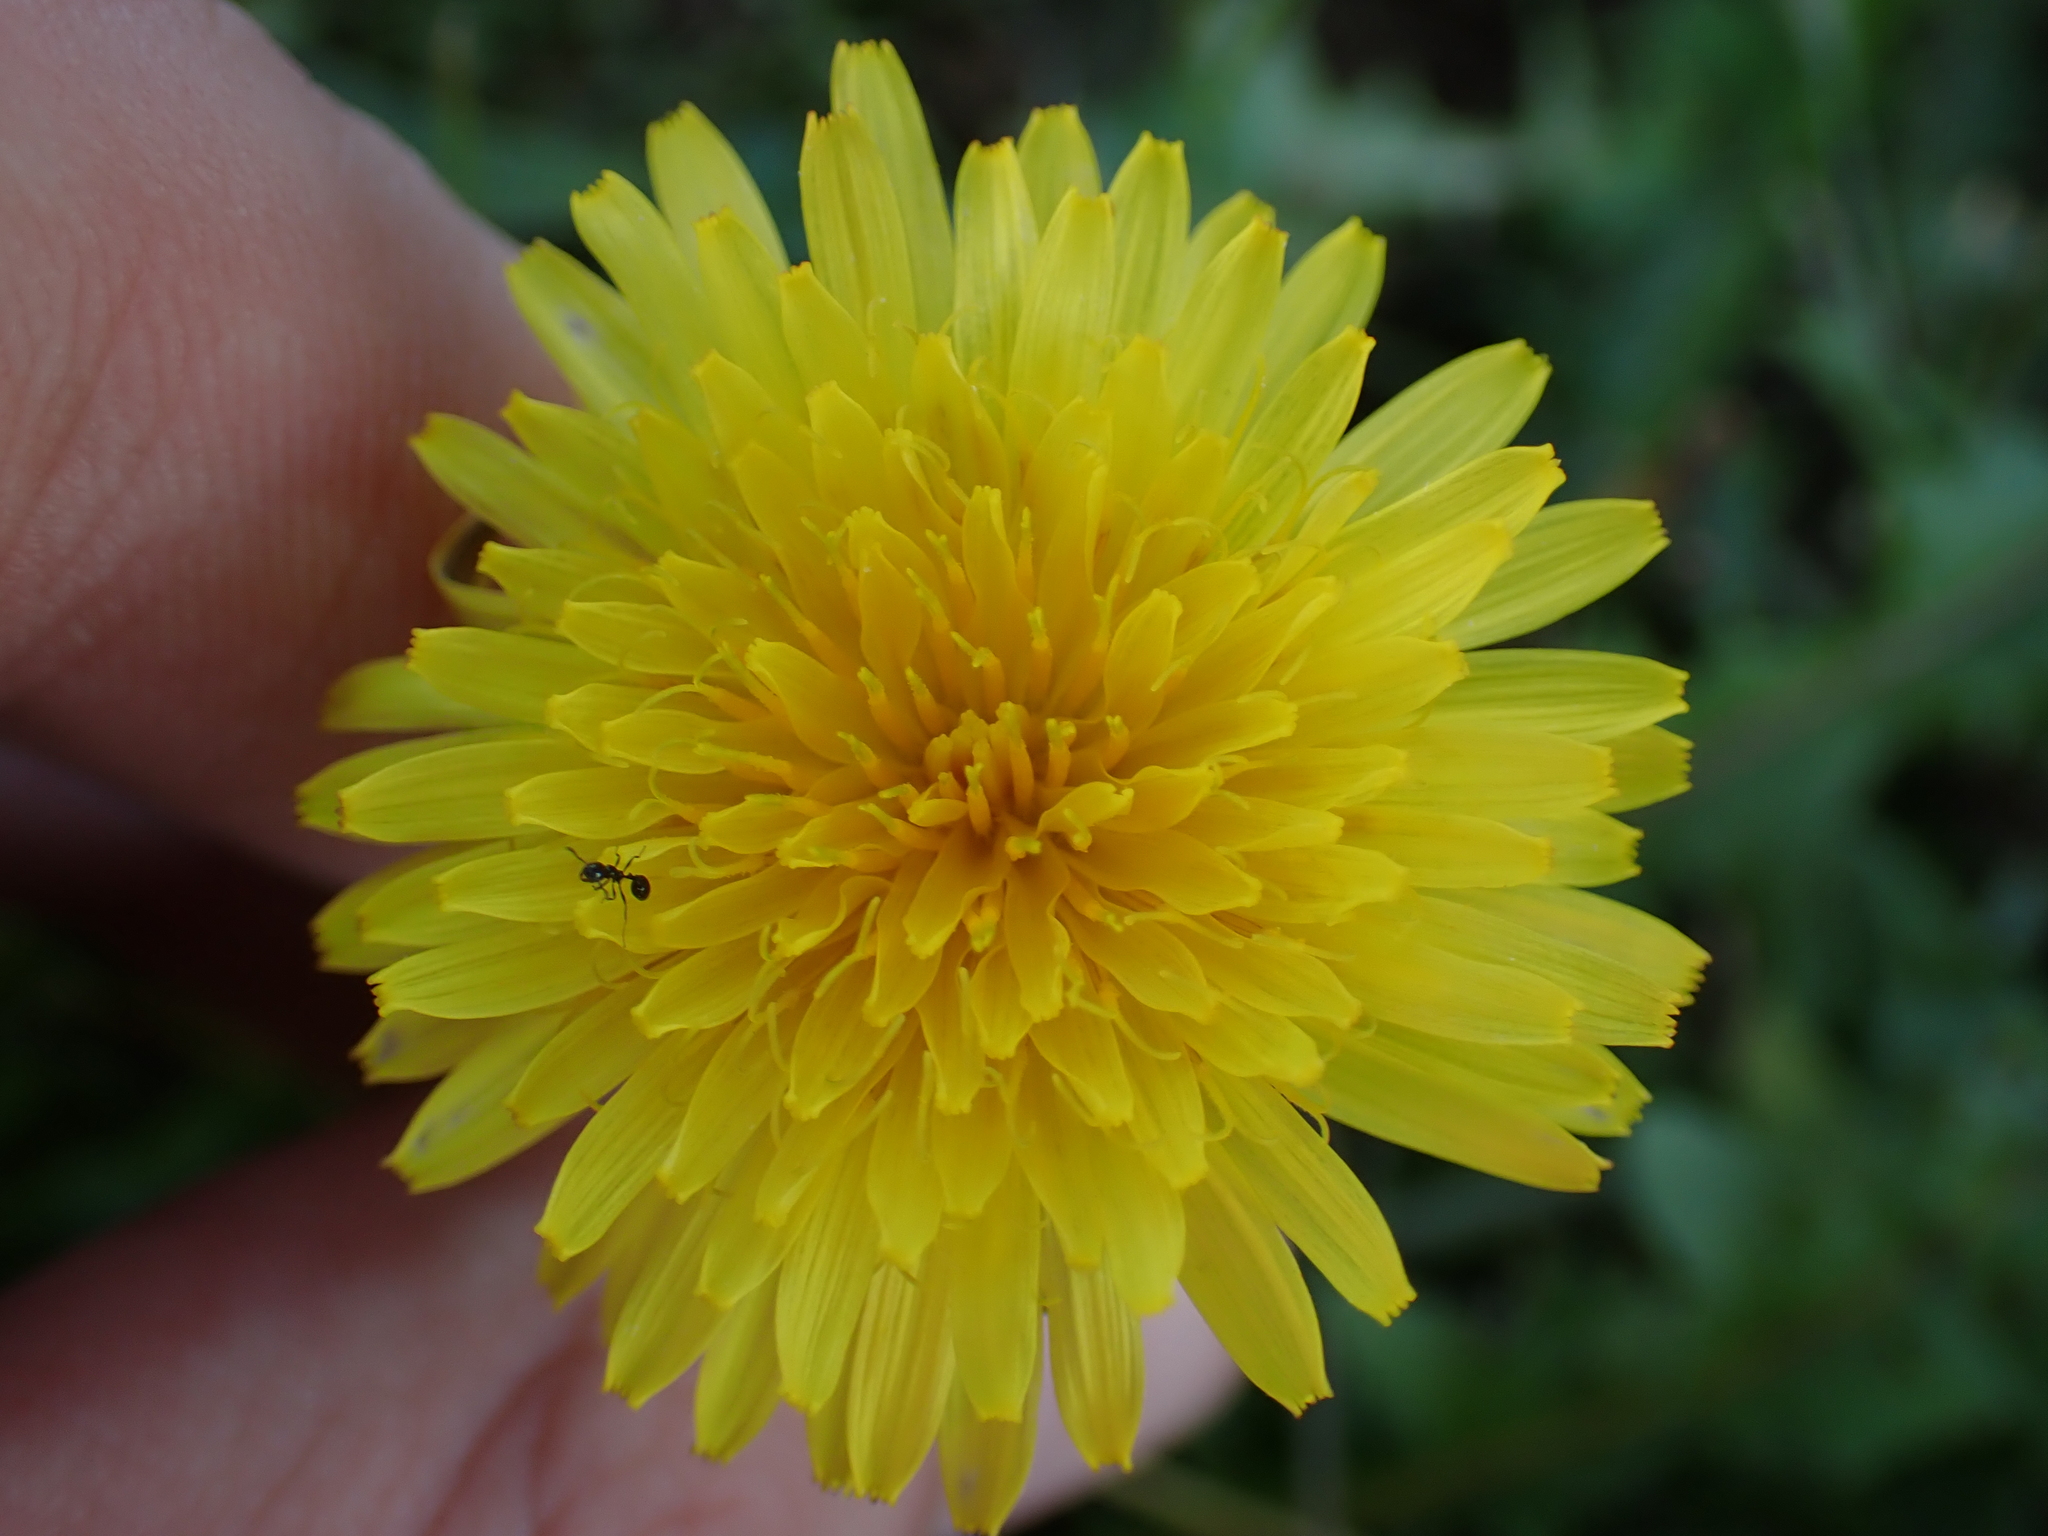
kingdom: Plantae
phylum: Tracheophyta
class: Magnoliopsida
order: Asterales
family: Asteraceae
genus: Taraxacum
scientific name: Taraxacum
